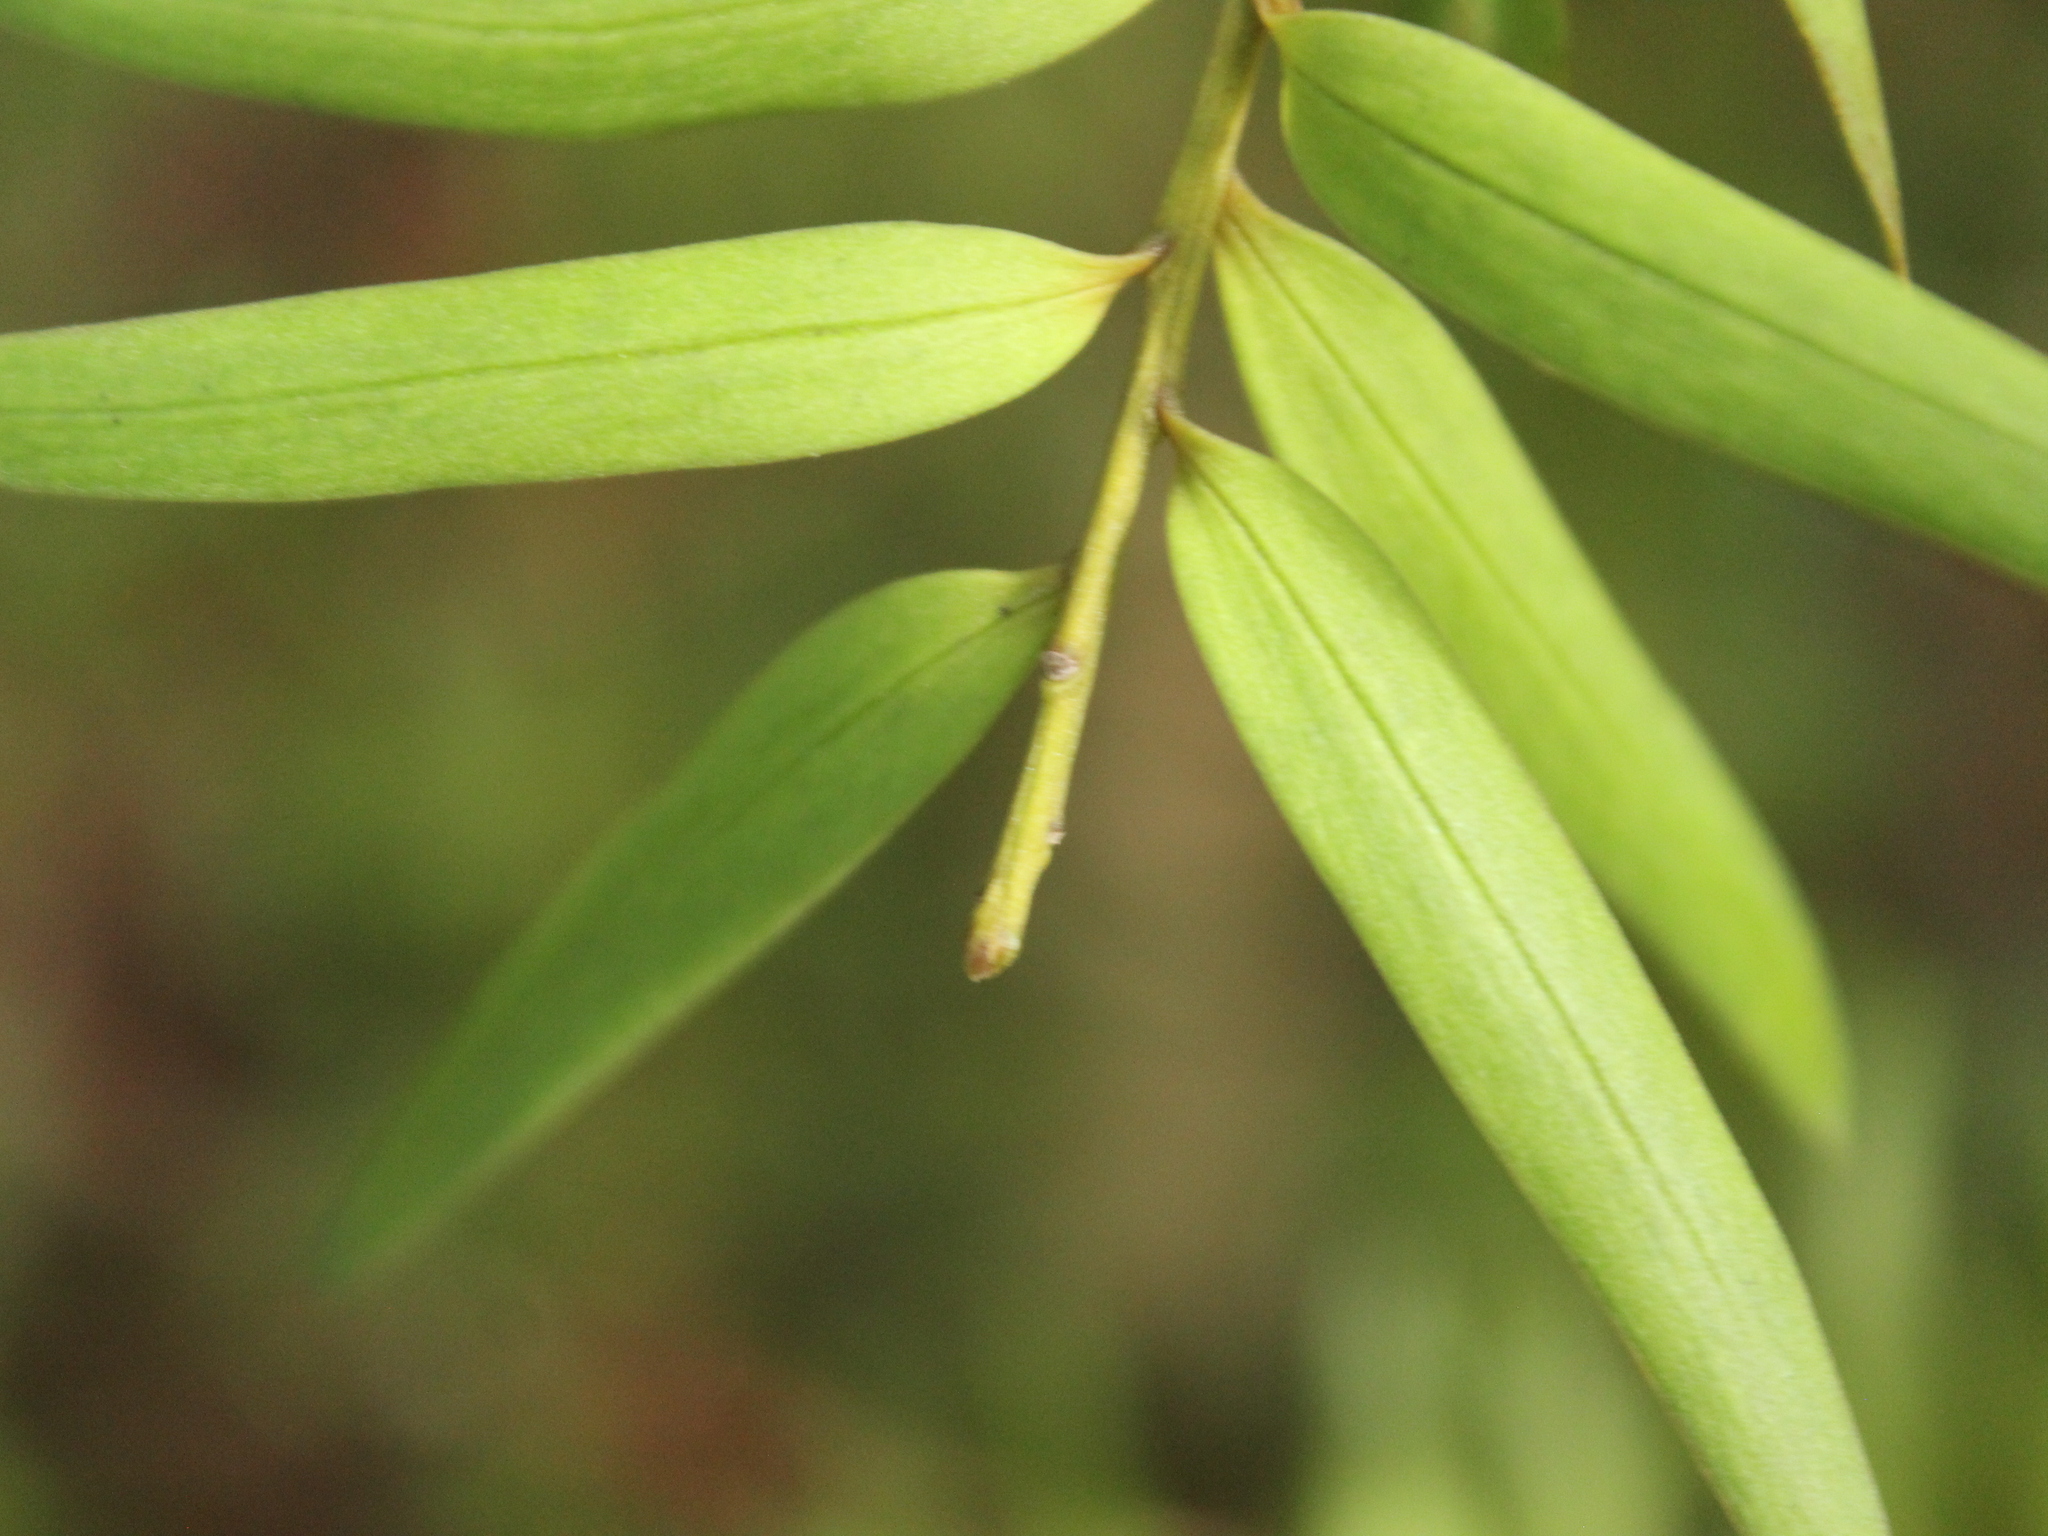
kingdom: Plantae
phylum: Tracheophyta
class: Pinopsida
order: Pinales
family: Podocarpaceae
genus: Podocarpus
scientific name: Podocarpus laetus
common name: Hall's totara
